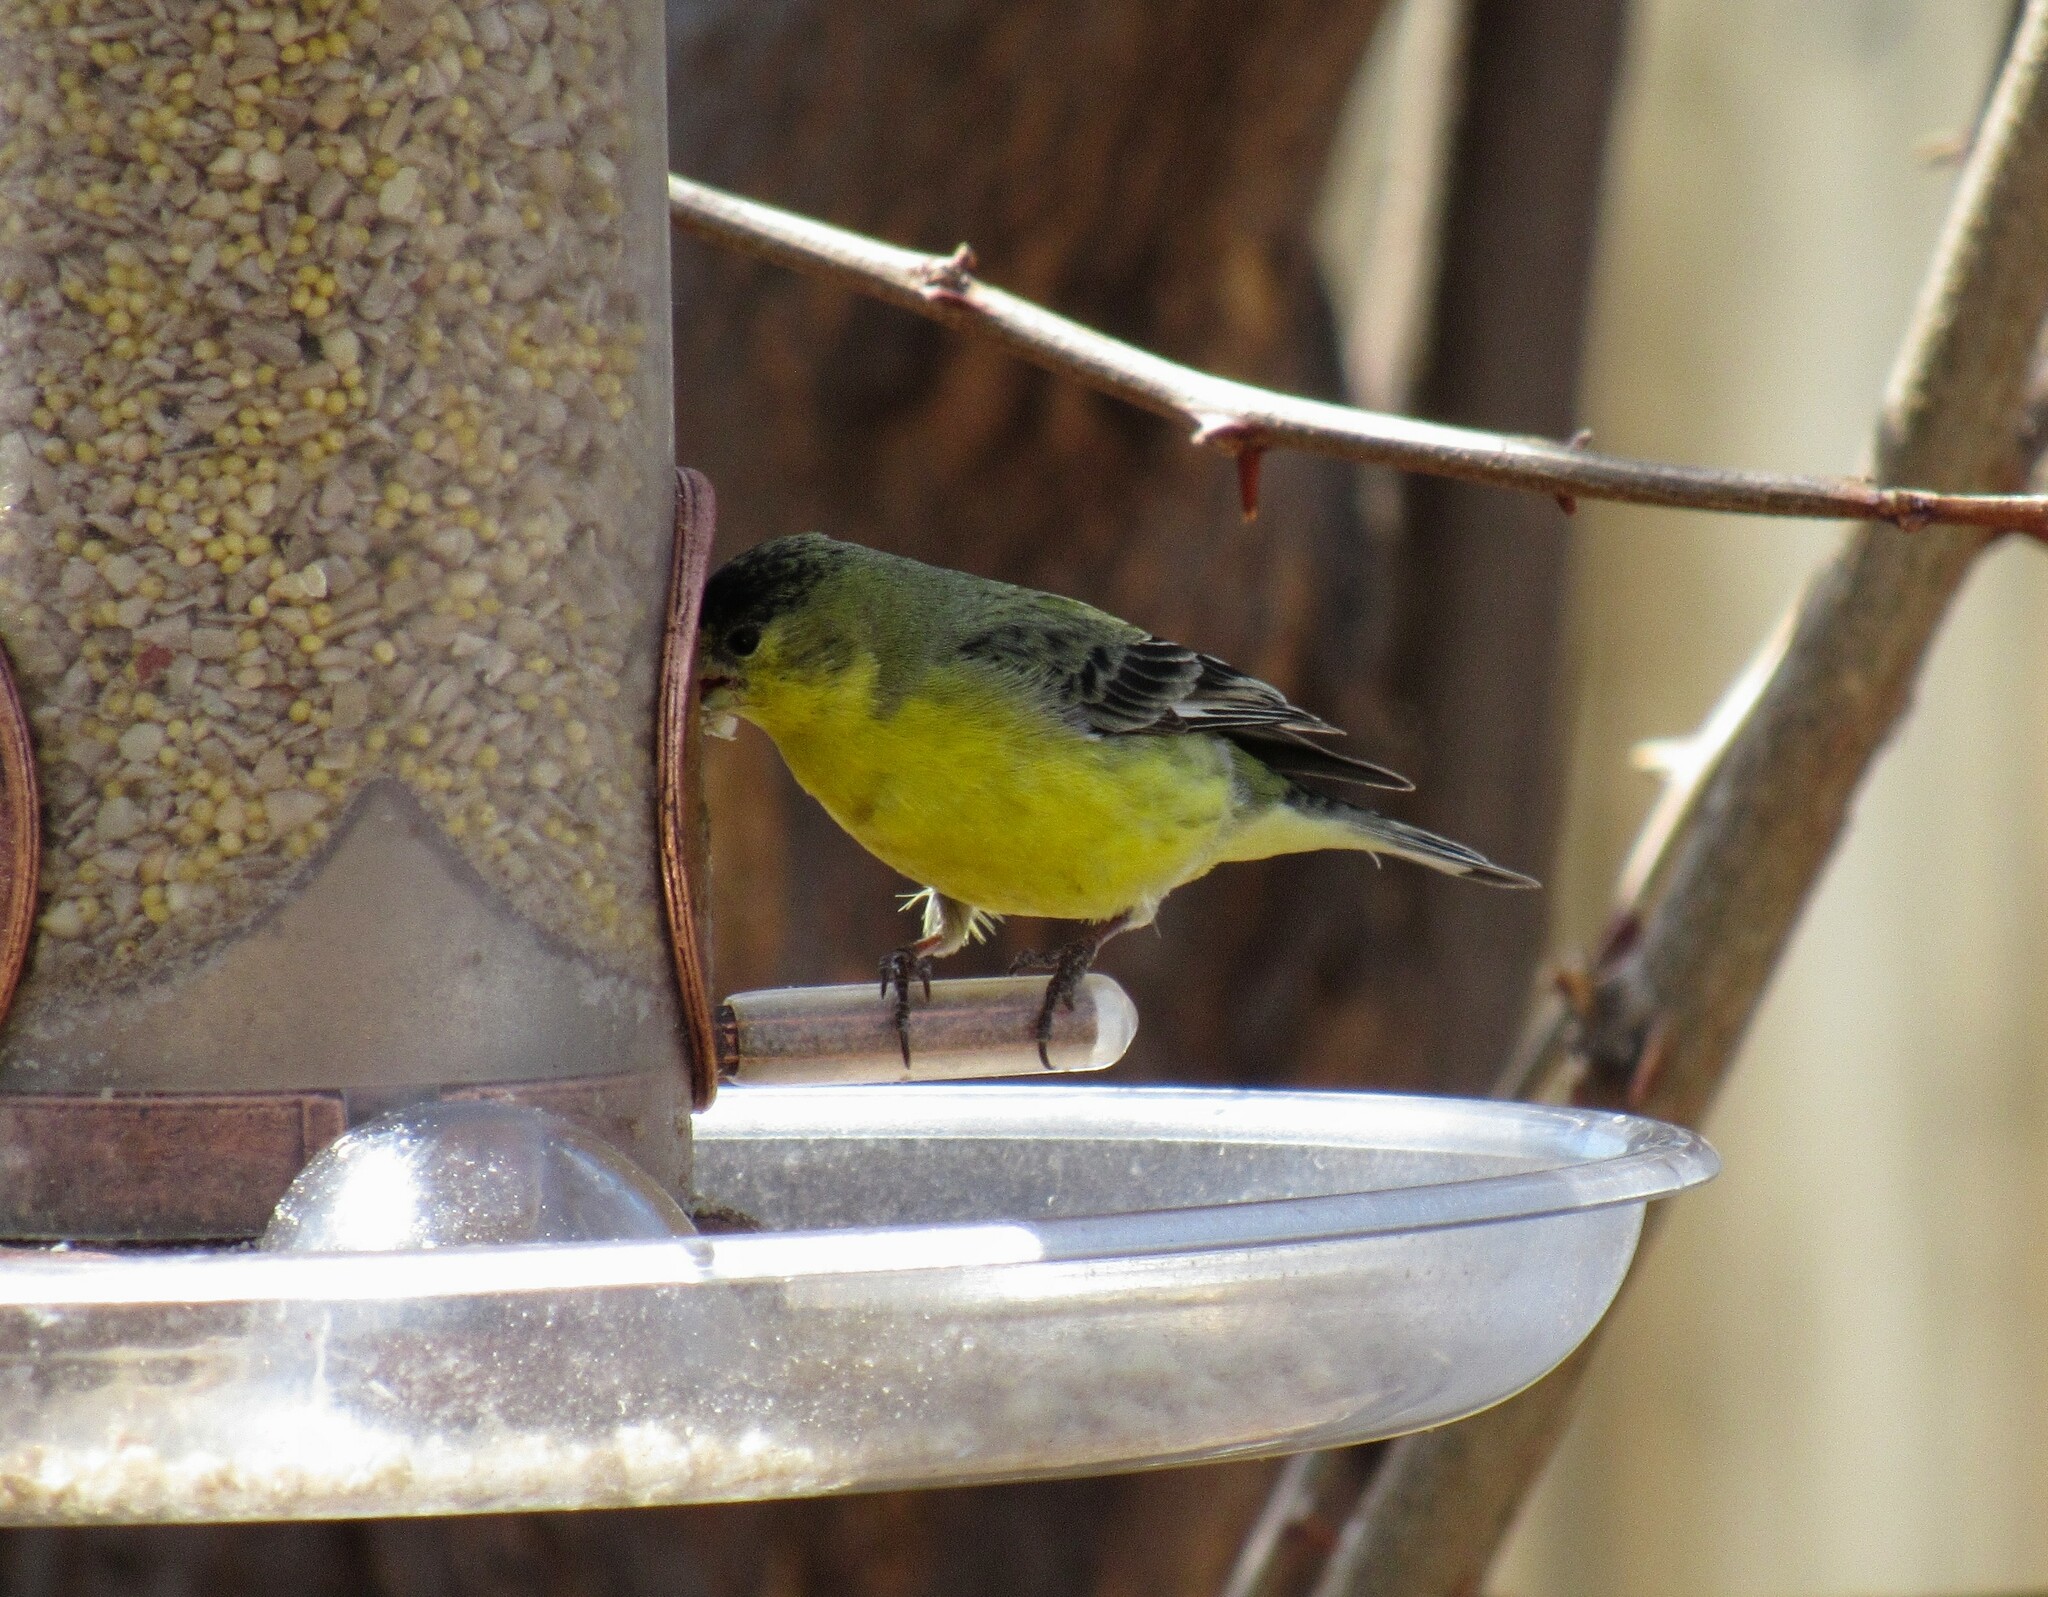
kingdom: Animalia
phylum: Chordata
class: Aves
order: Passeriformes
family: Fringillidae
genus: Spinus
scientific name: Spinus psaltria
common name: Lesser goldfinch
